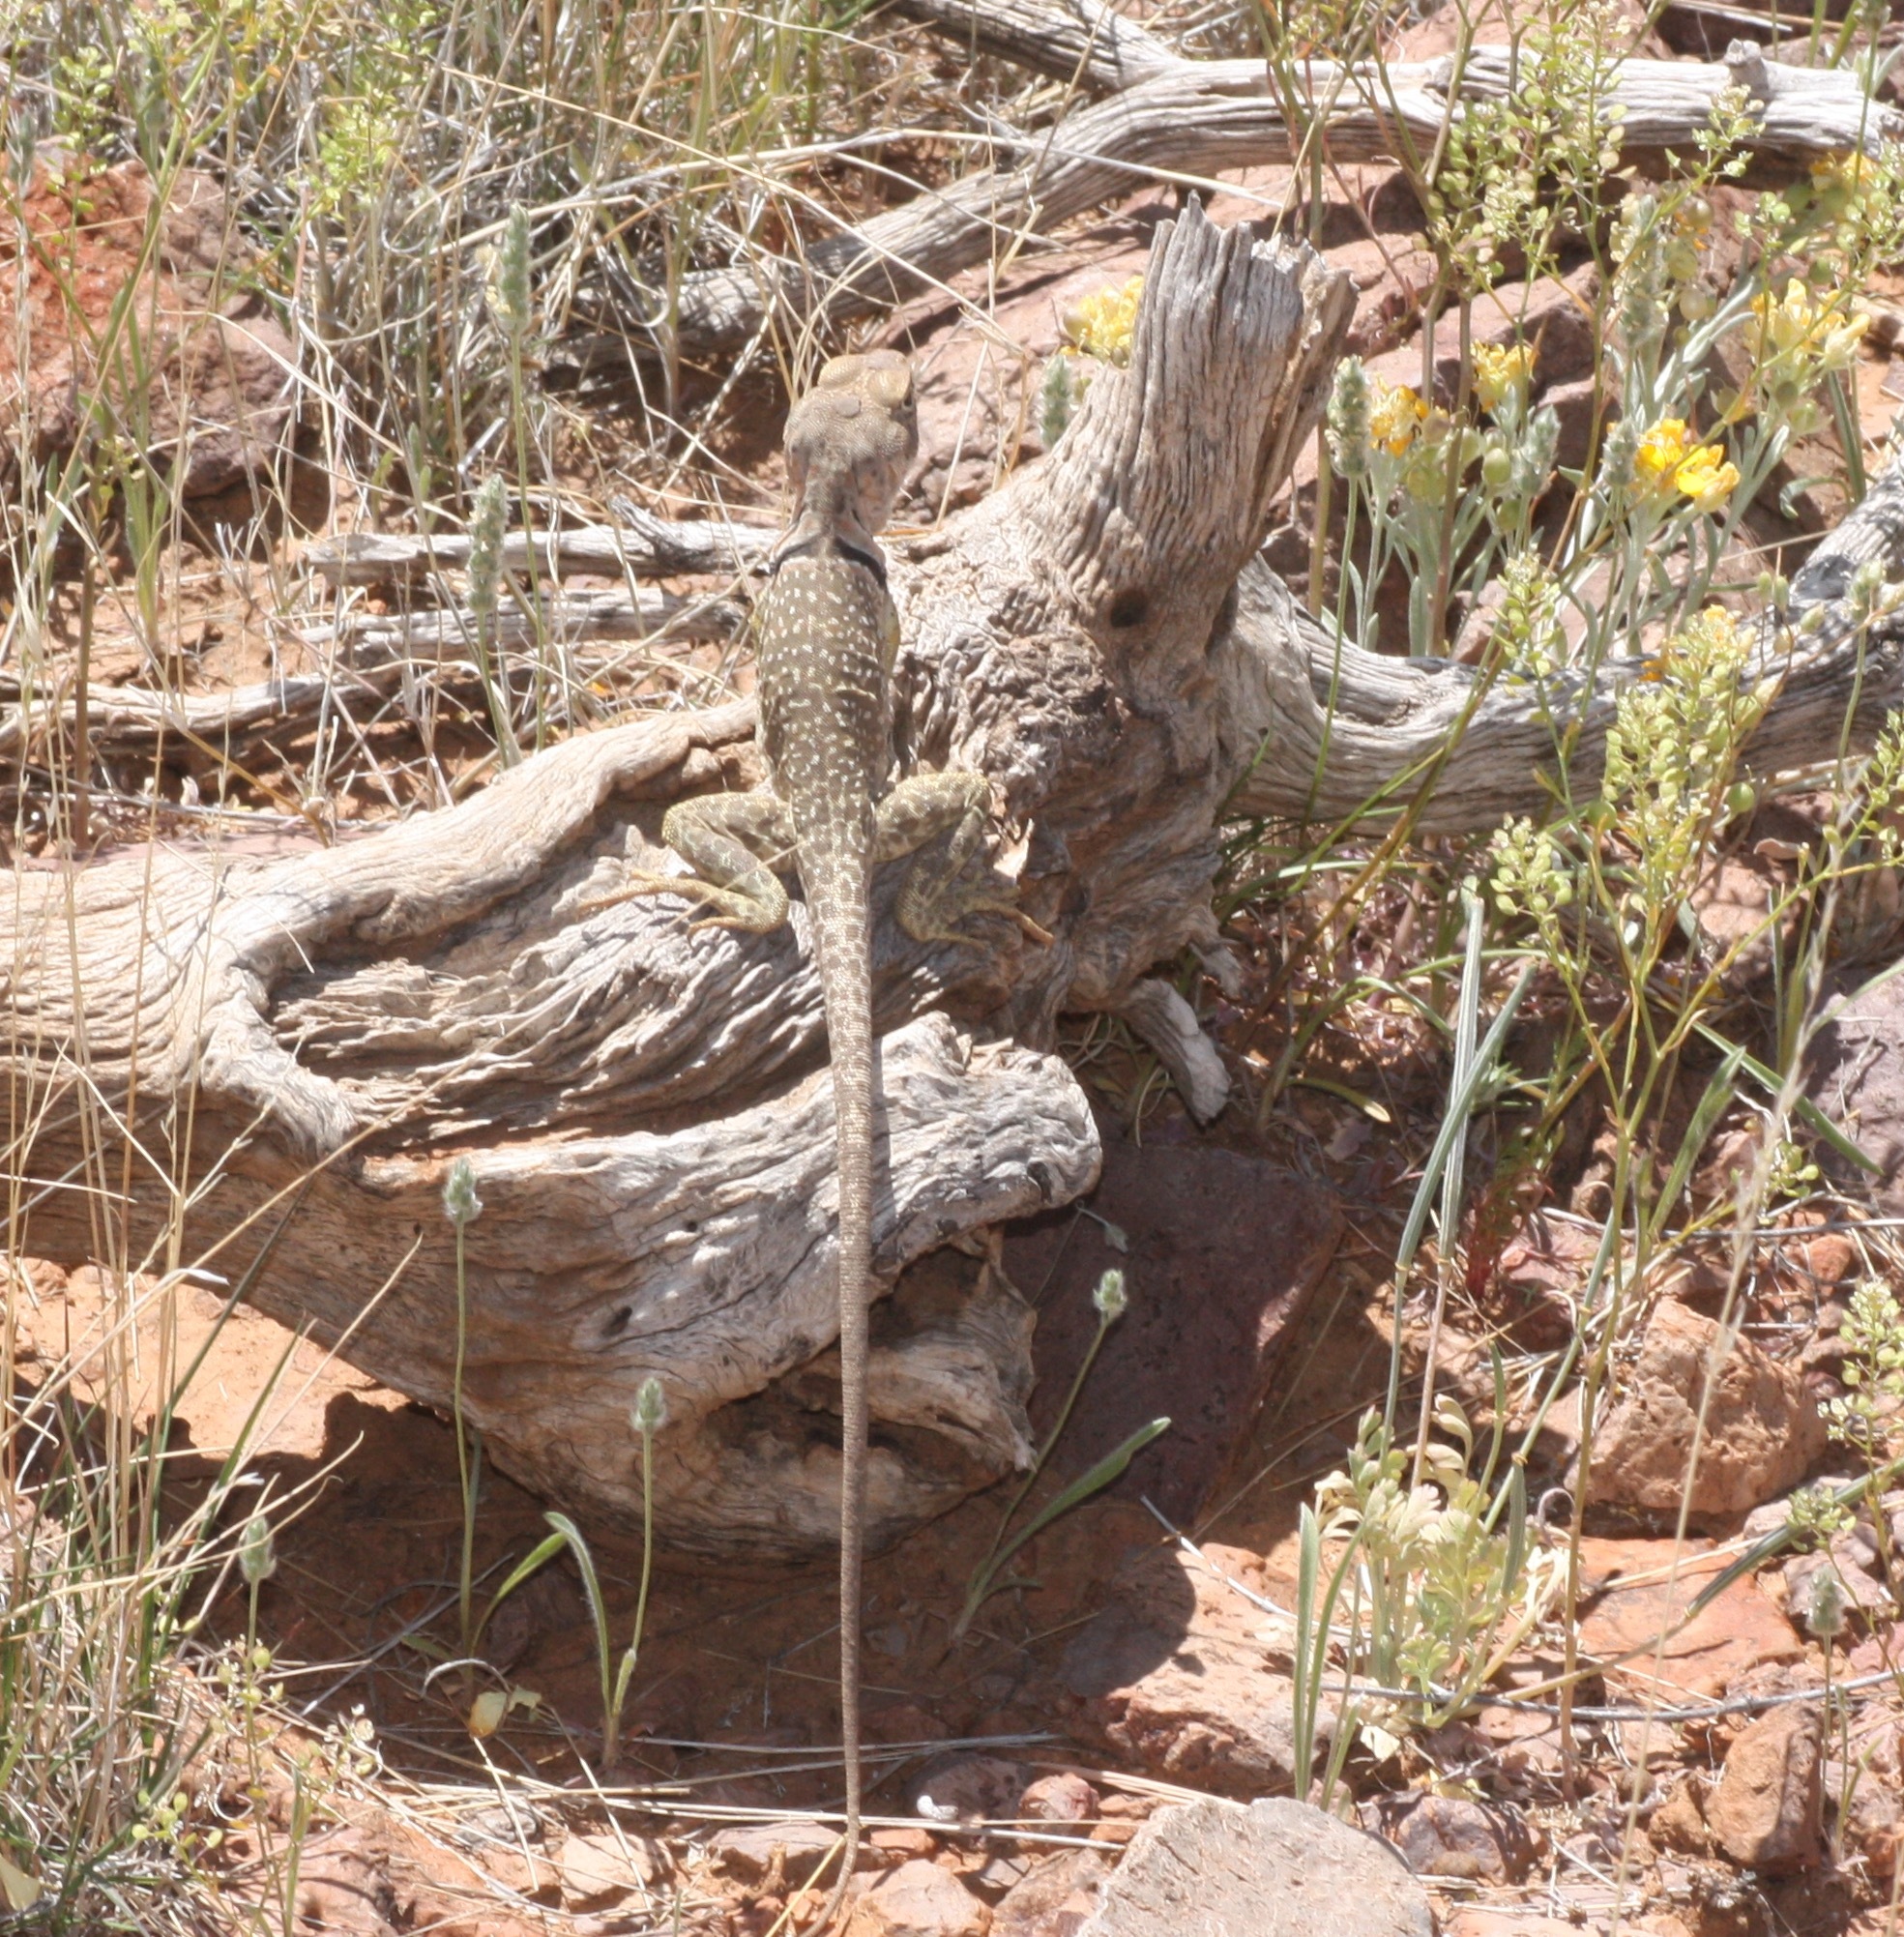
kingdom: Animalia
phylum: Chordata
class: Squamata
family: Crotaphytidae
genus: Crotaphytus
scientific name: Crotaphytus collaris
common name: Collared lizard
